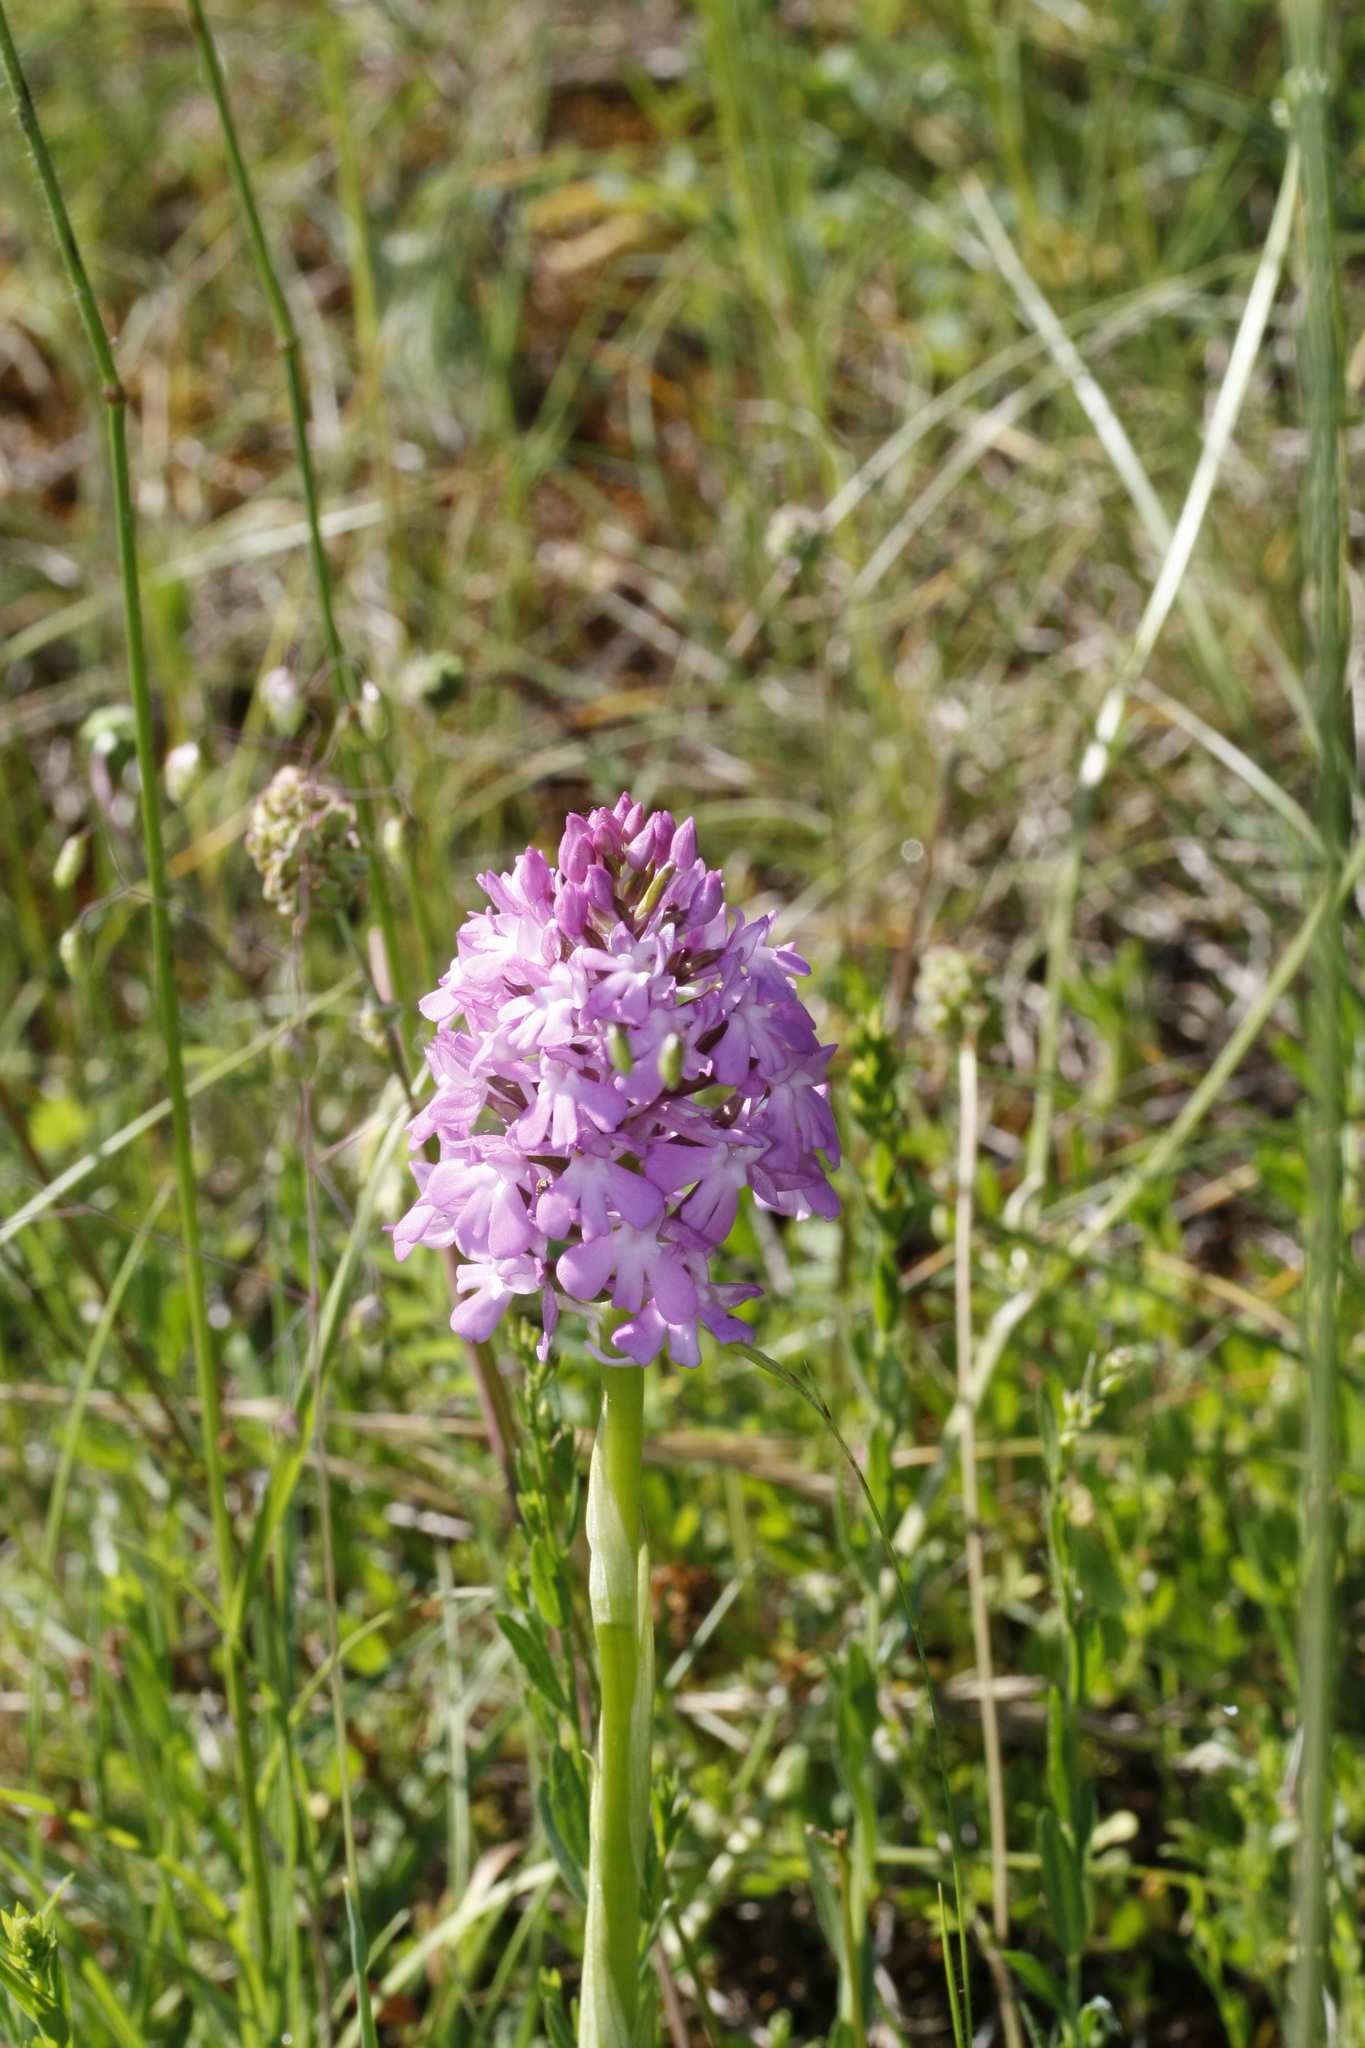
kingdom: Plantae
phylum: Tracheophyta
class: Liliopsida
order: Asparagales
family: Orchidaceae
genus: Anacamptis
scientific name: Anacamptis pyramidalis
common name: Pyramidal orchid
